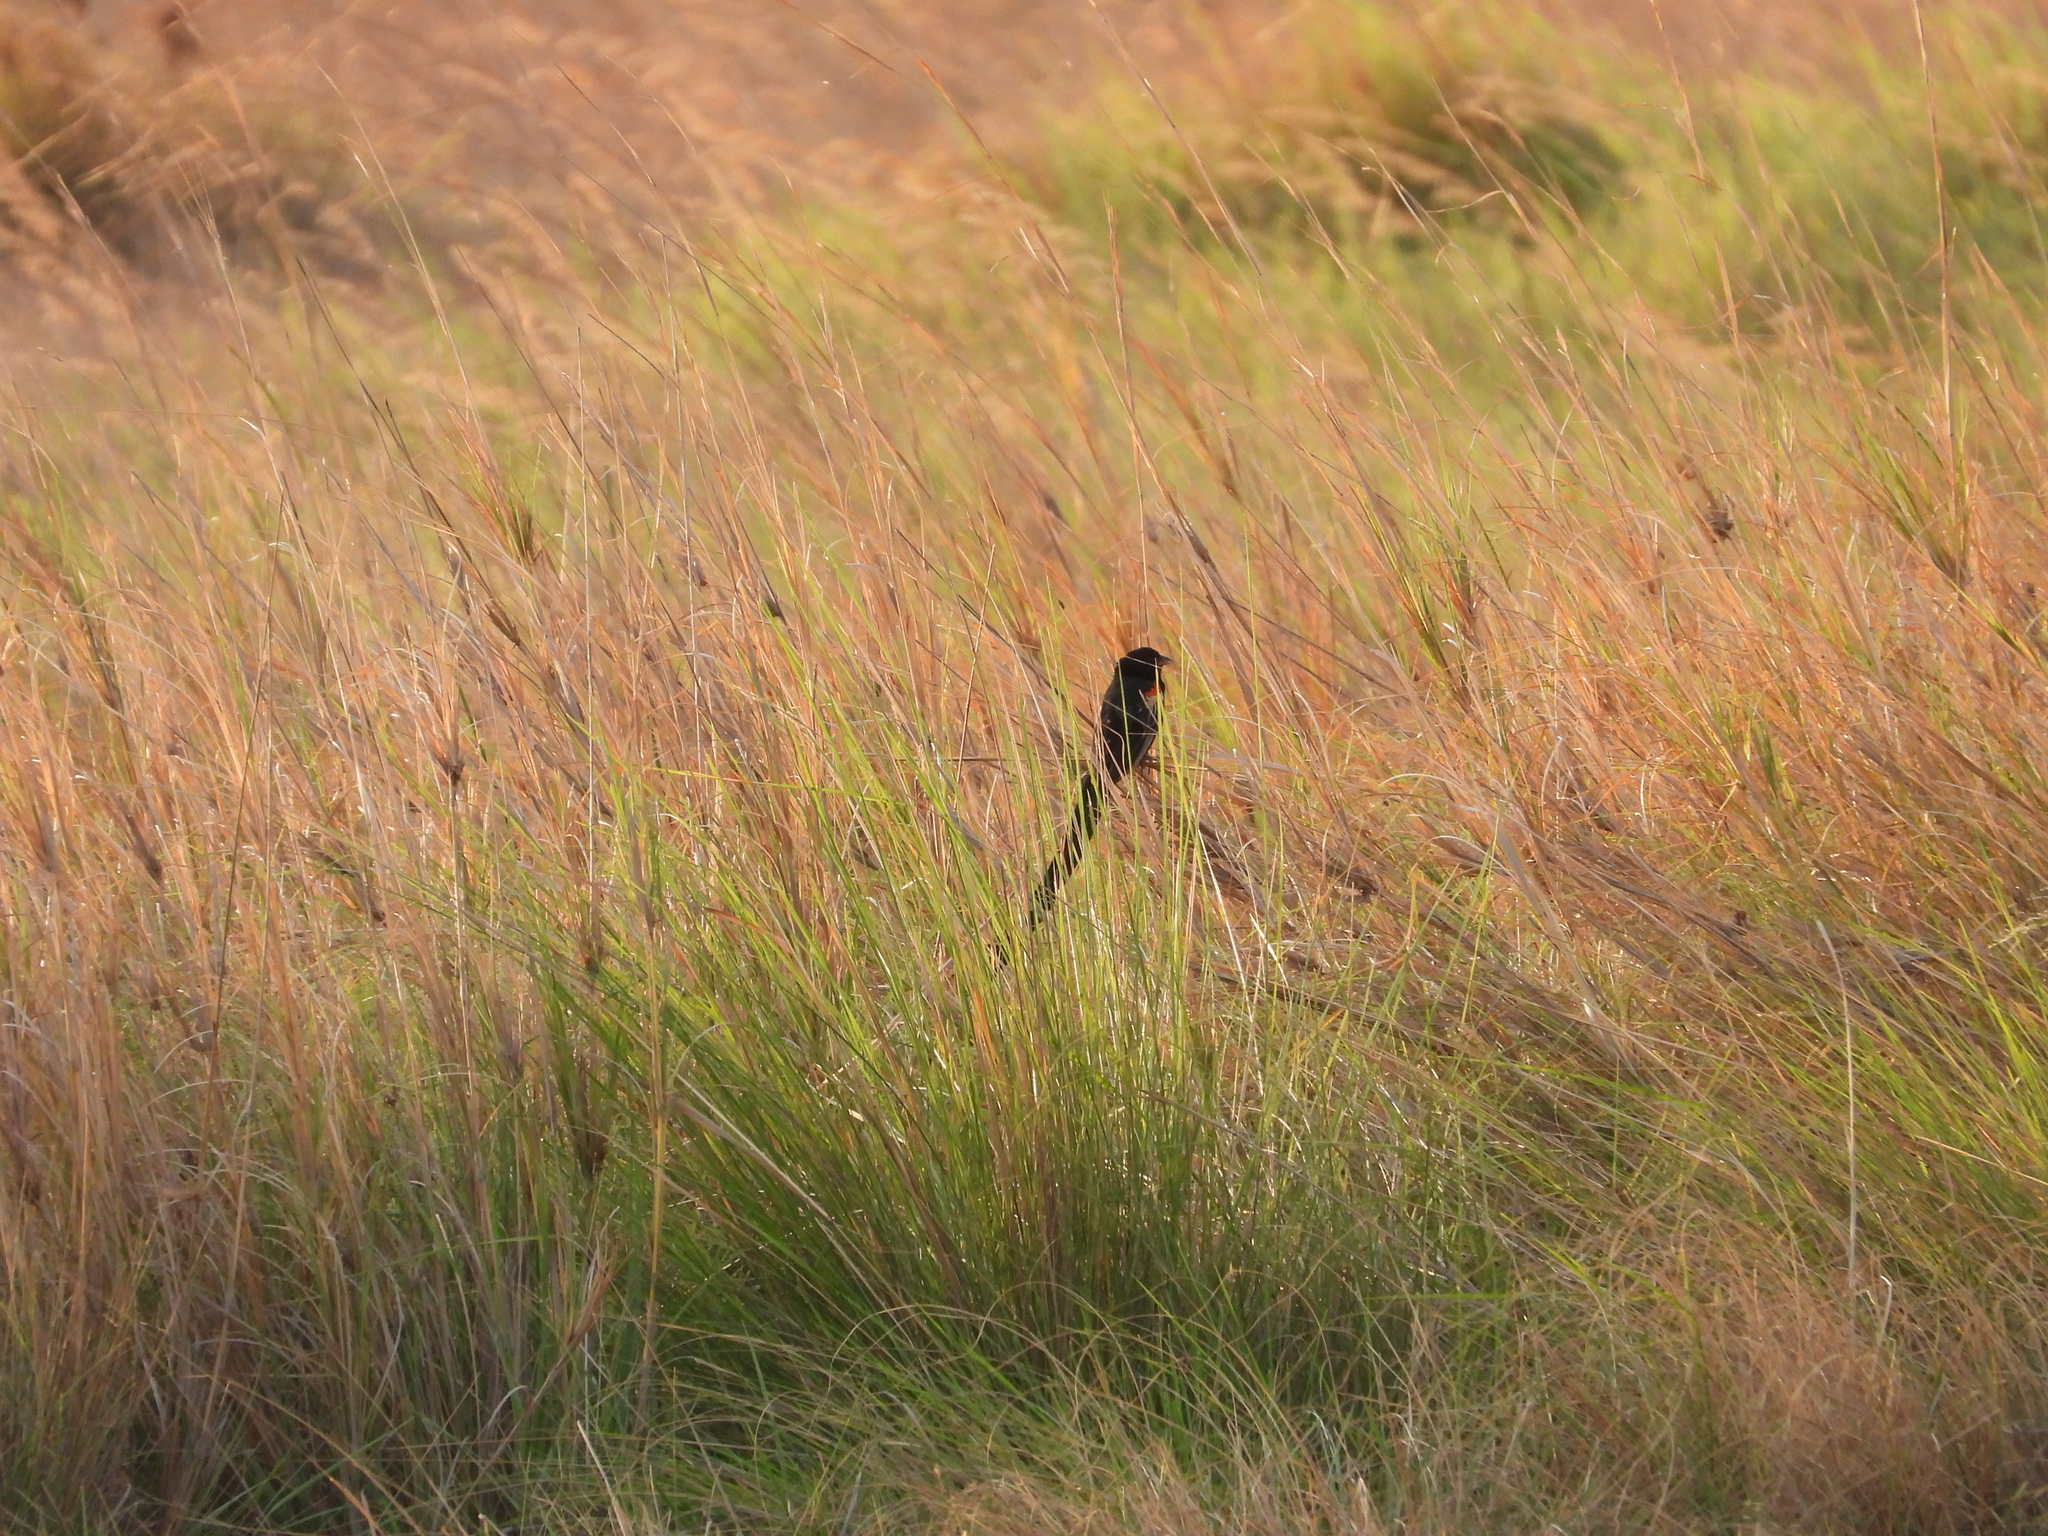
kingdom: Animalia
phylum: Chordata
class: Aves
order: Passeriformes
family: Ploceidae
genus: Euplectes
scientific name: Euplectes progne
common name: Long-tailed widowbird
